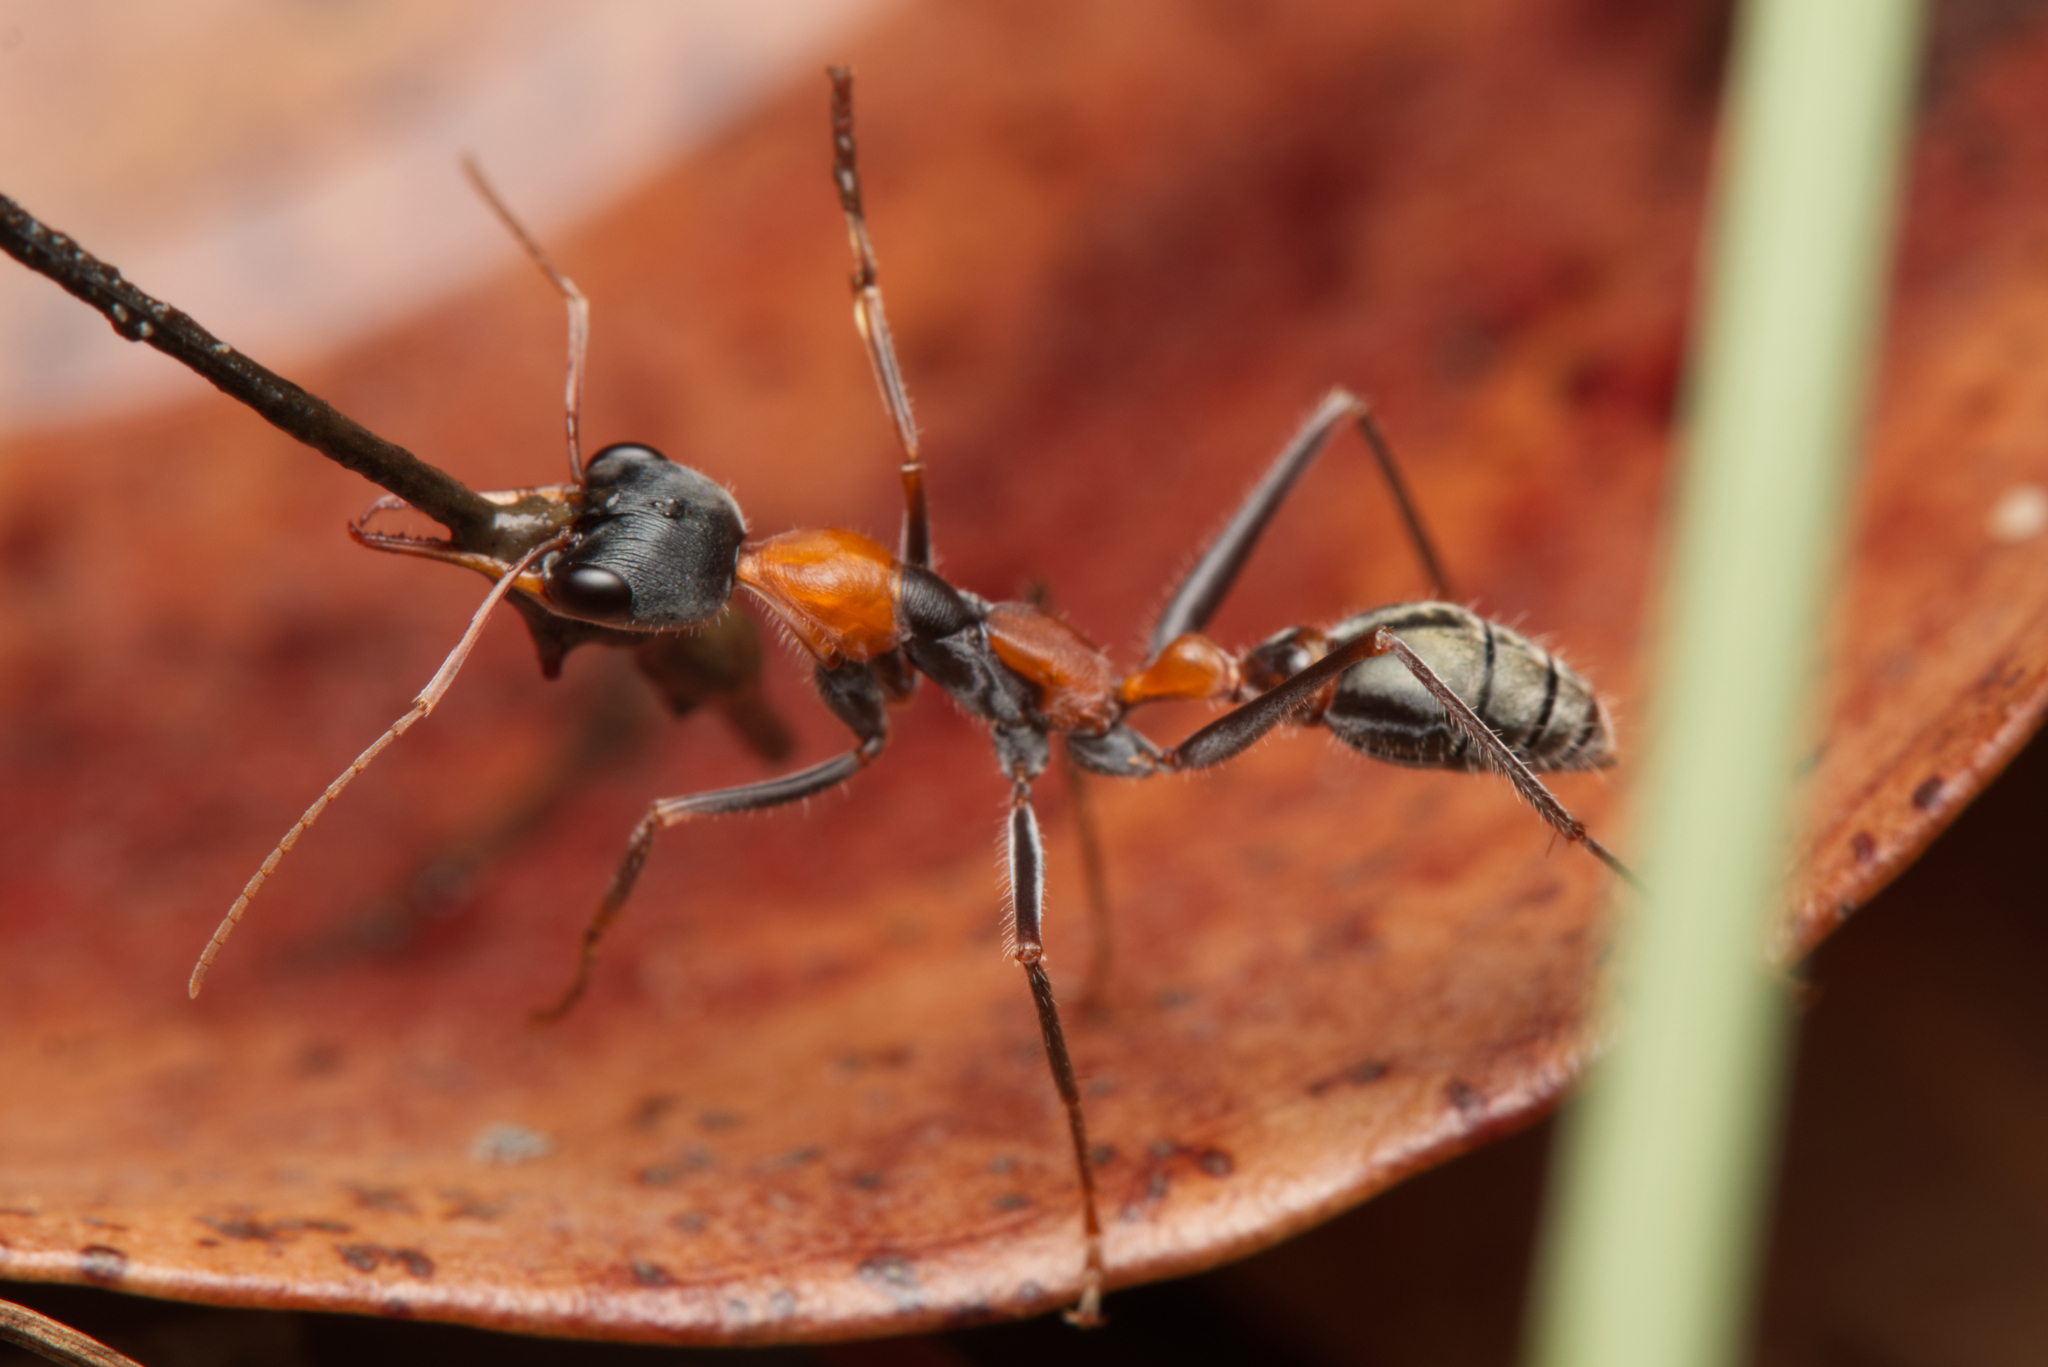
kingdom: Animalia
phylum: Arthropoda
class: Insecta
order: Hymenoptera
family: Formicidae
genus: Myrmecia
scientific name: Myrmecia nigrocincta
